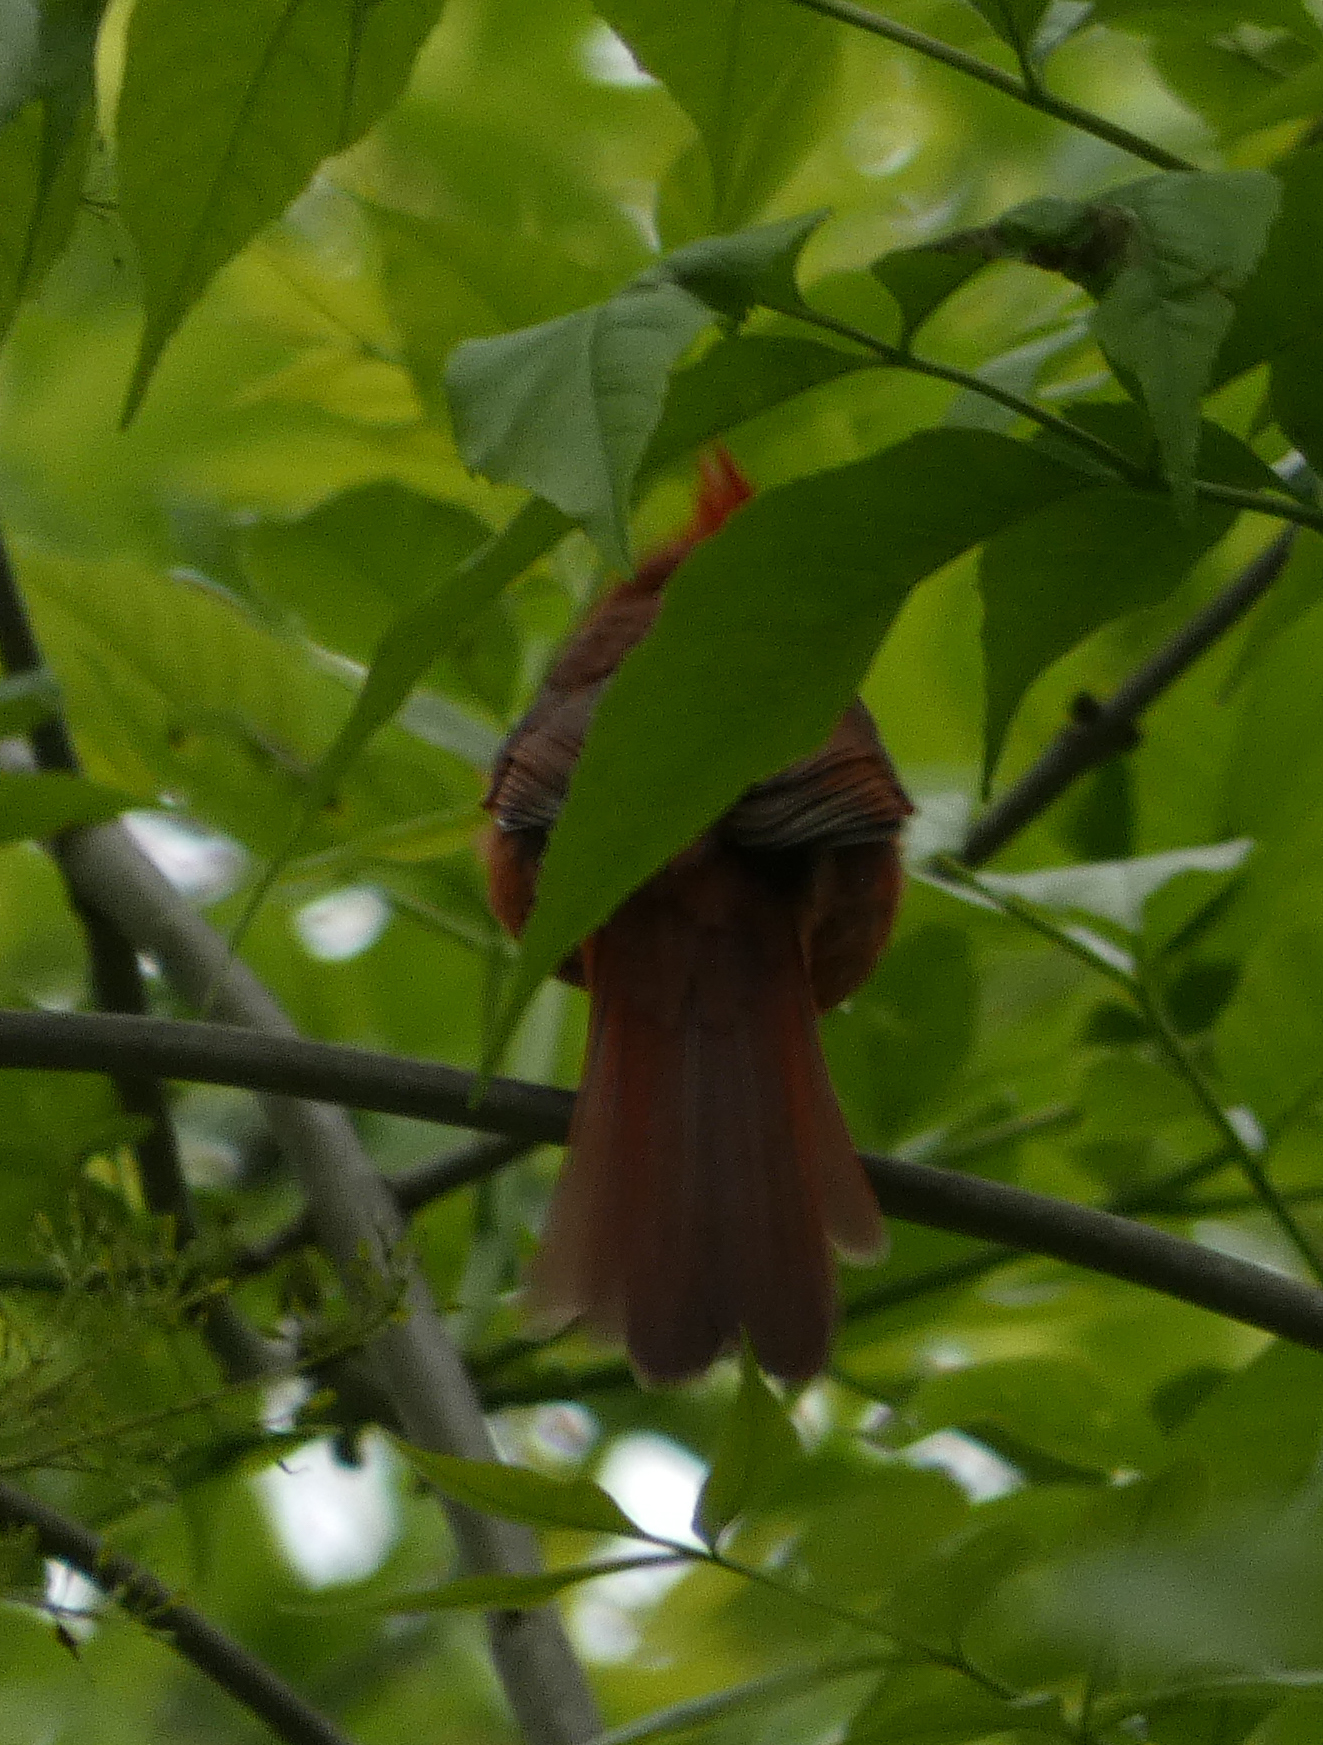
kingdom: Animalia
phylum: Chordata
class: Aves
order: Passeriformes
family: Cardinalidae
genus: Cardinalis
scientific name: Cardinalis cardinalis
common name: Northern cardinal
